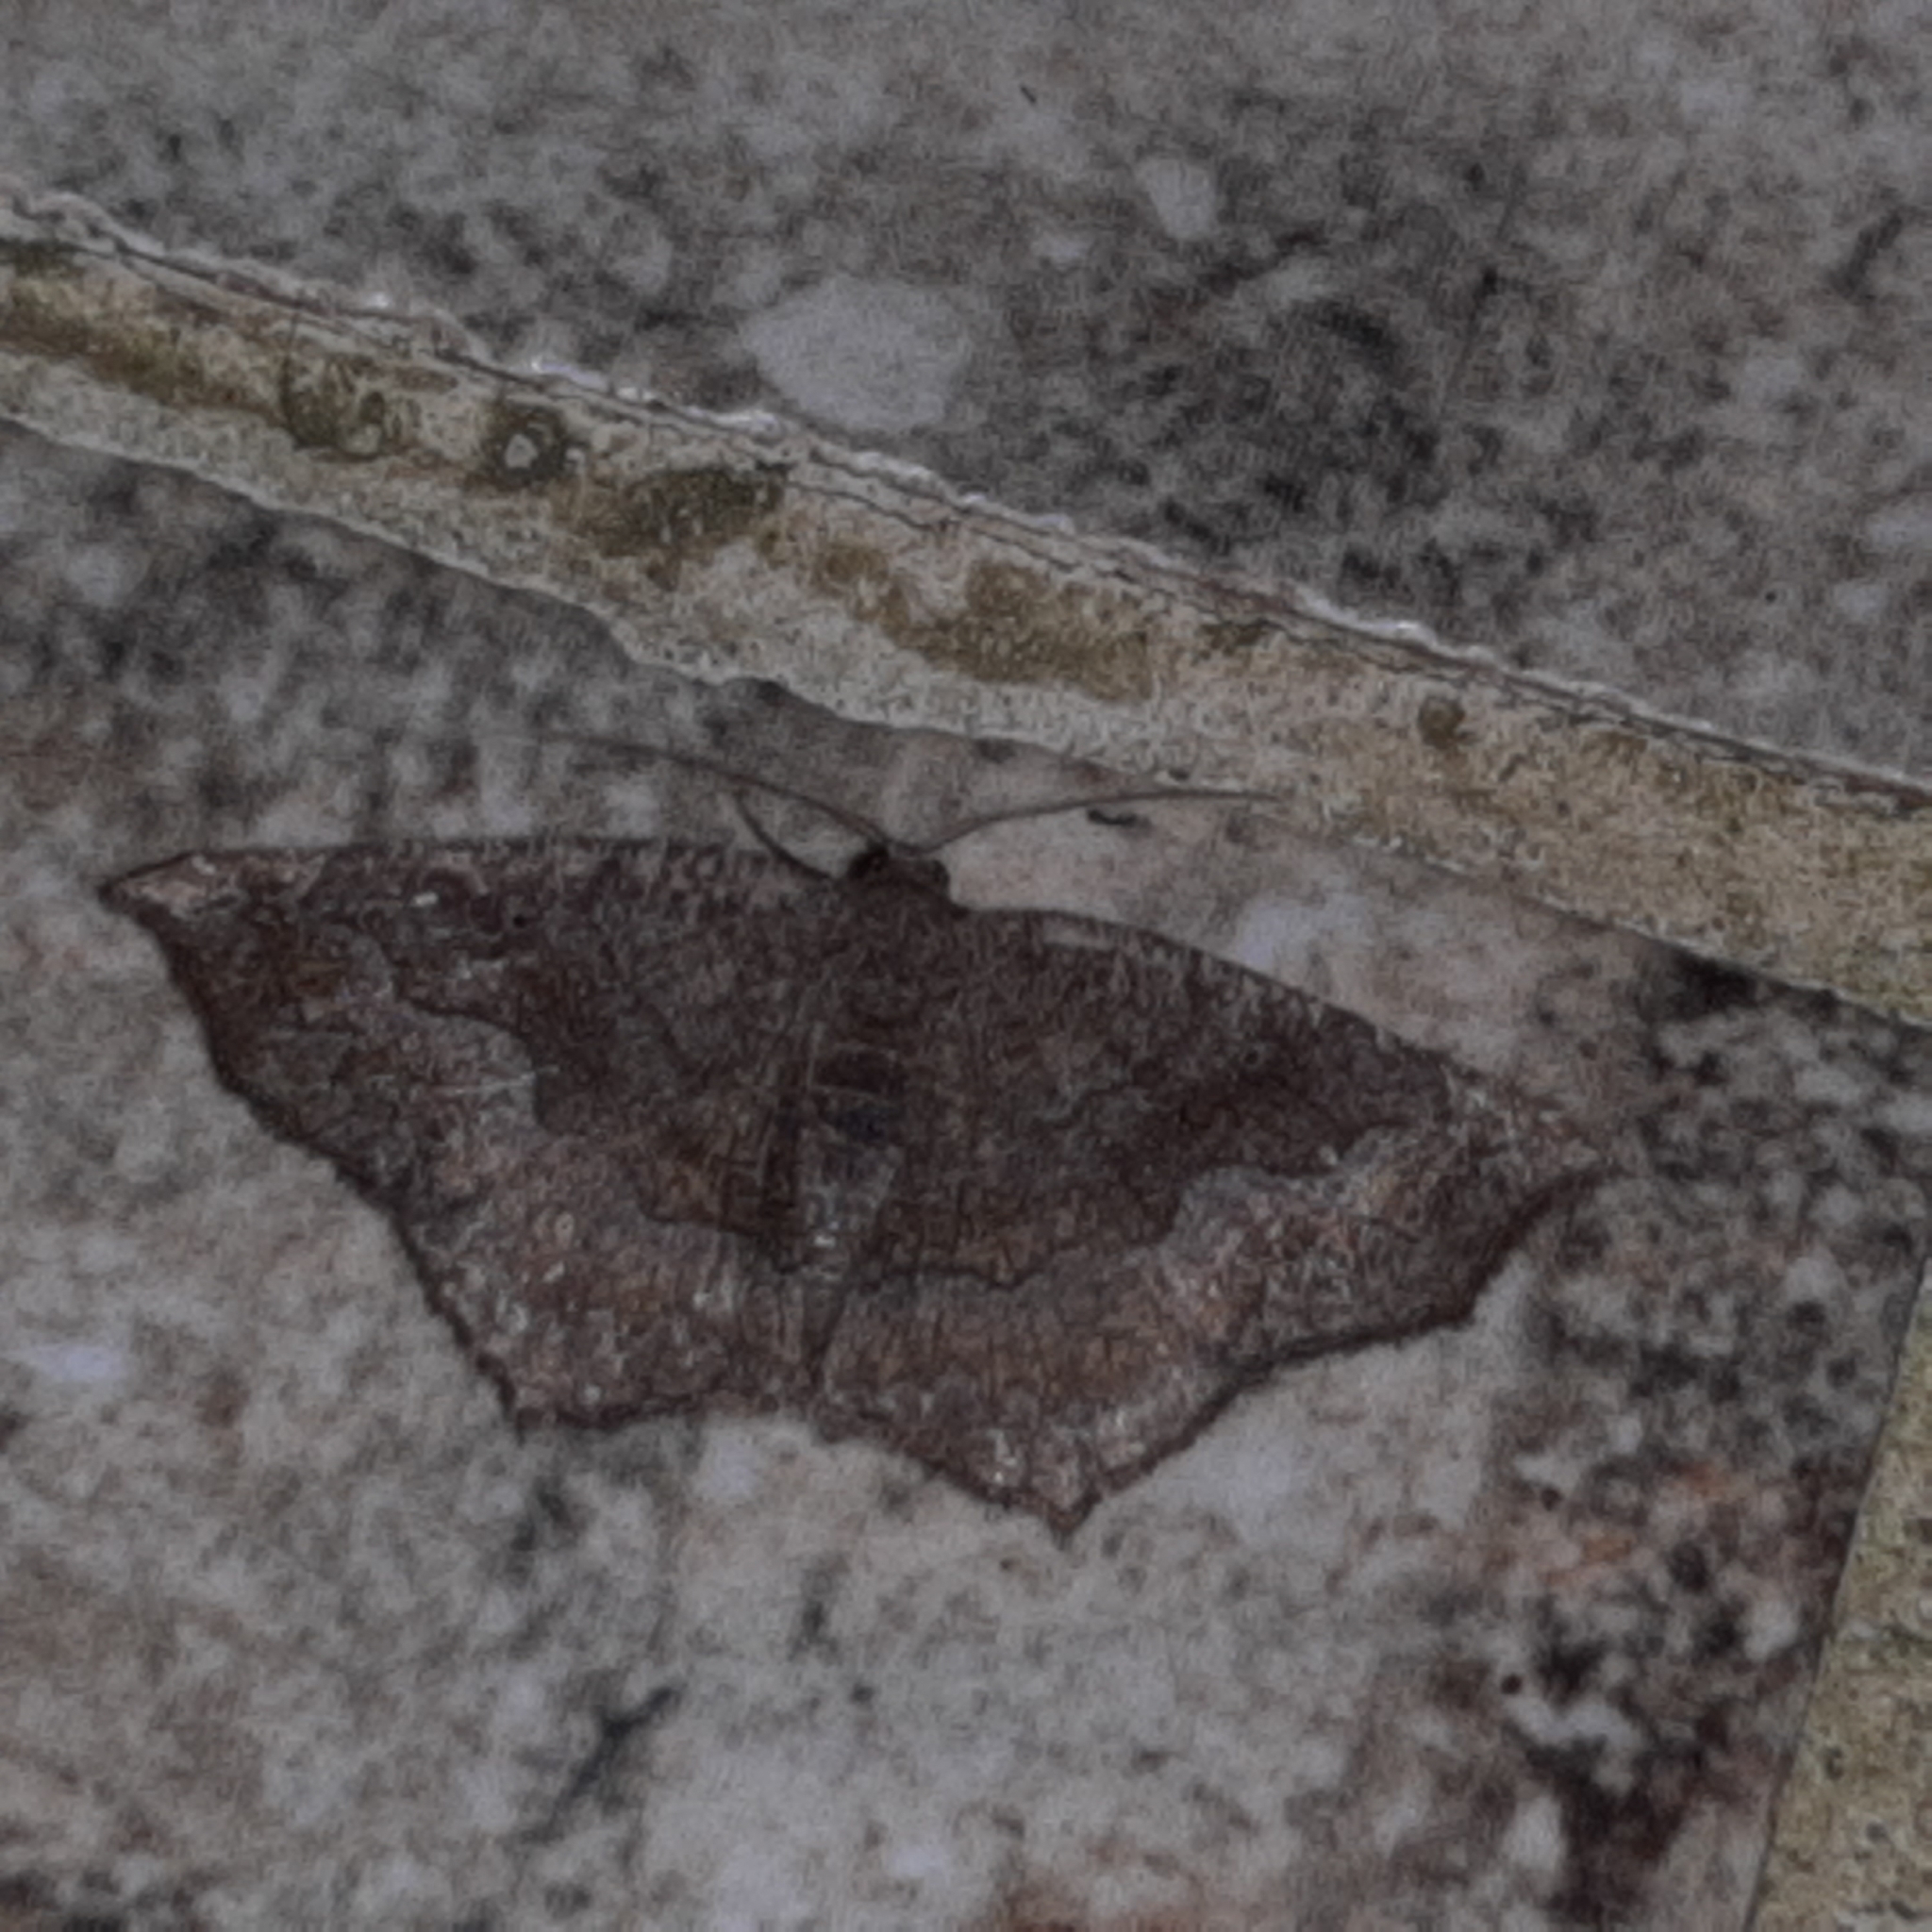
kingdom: Animalia
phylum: Arthropoda
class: Insecta
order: Lepidoptera
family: Geometridae
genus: Anisoperas
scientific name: Anisoperas atropunctaria
